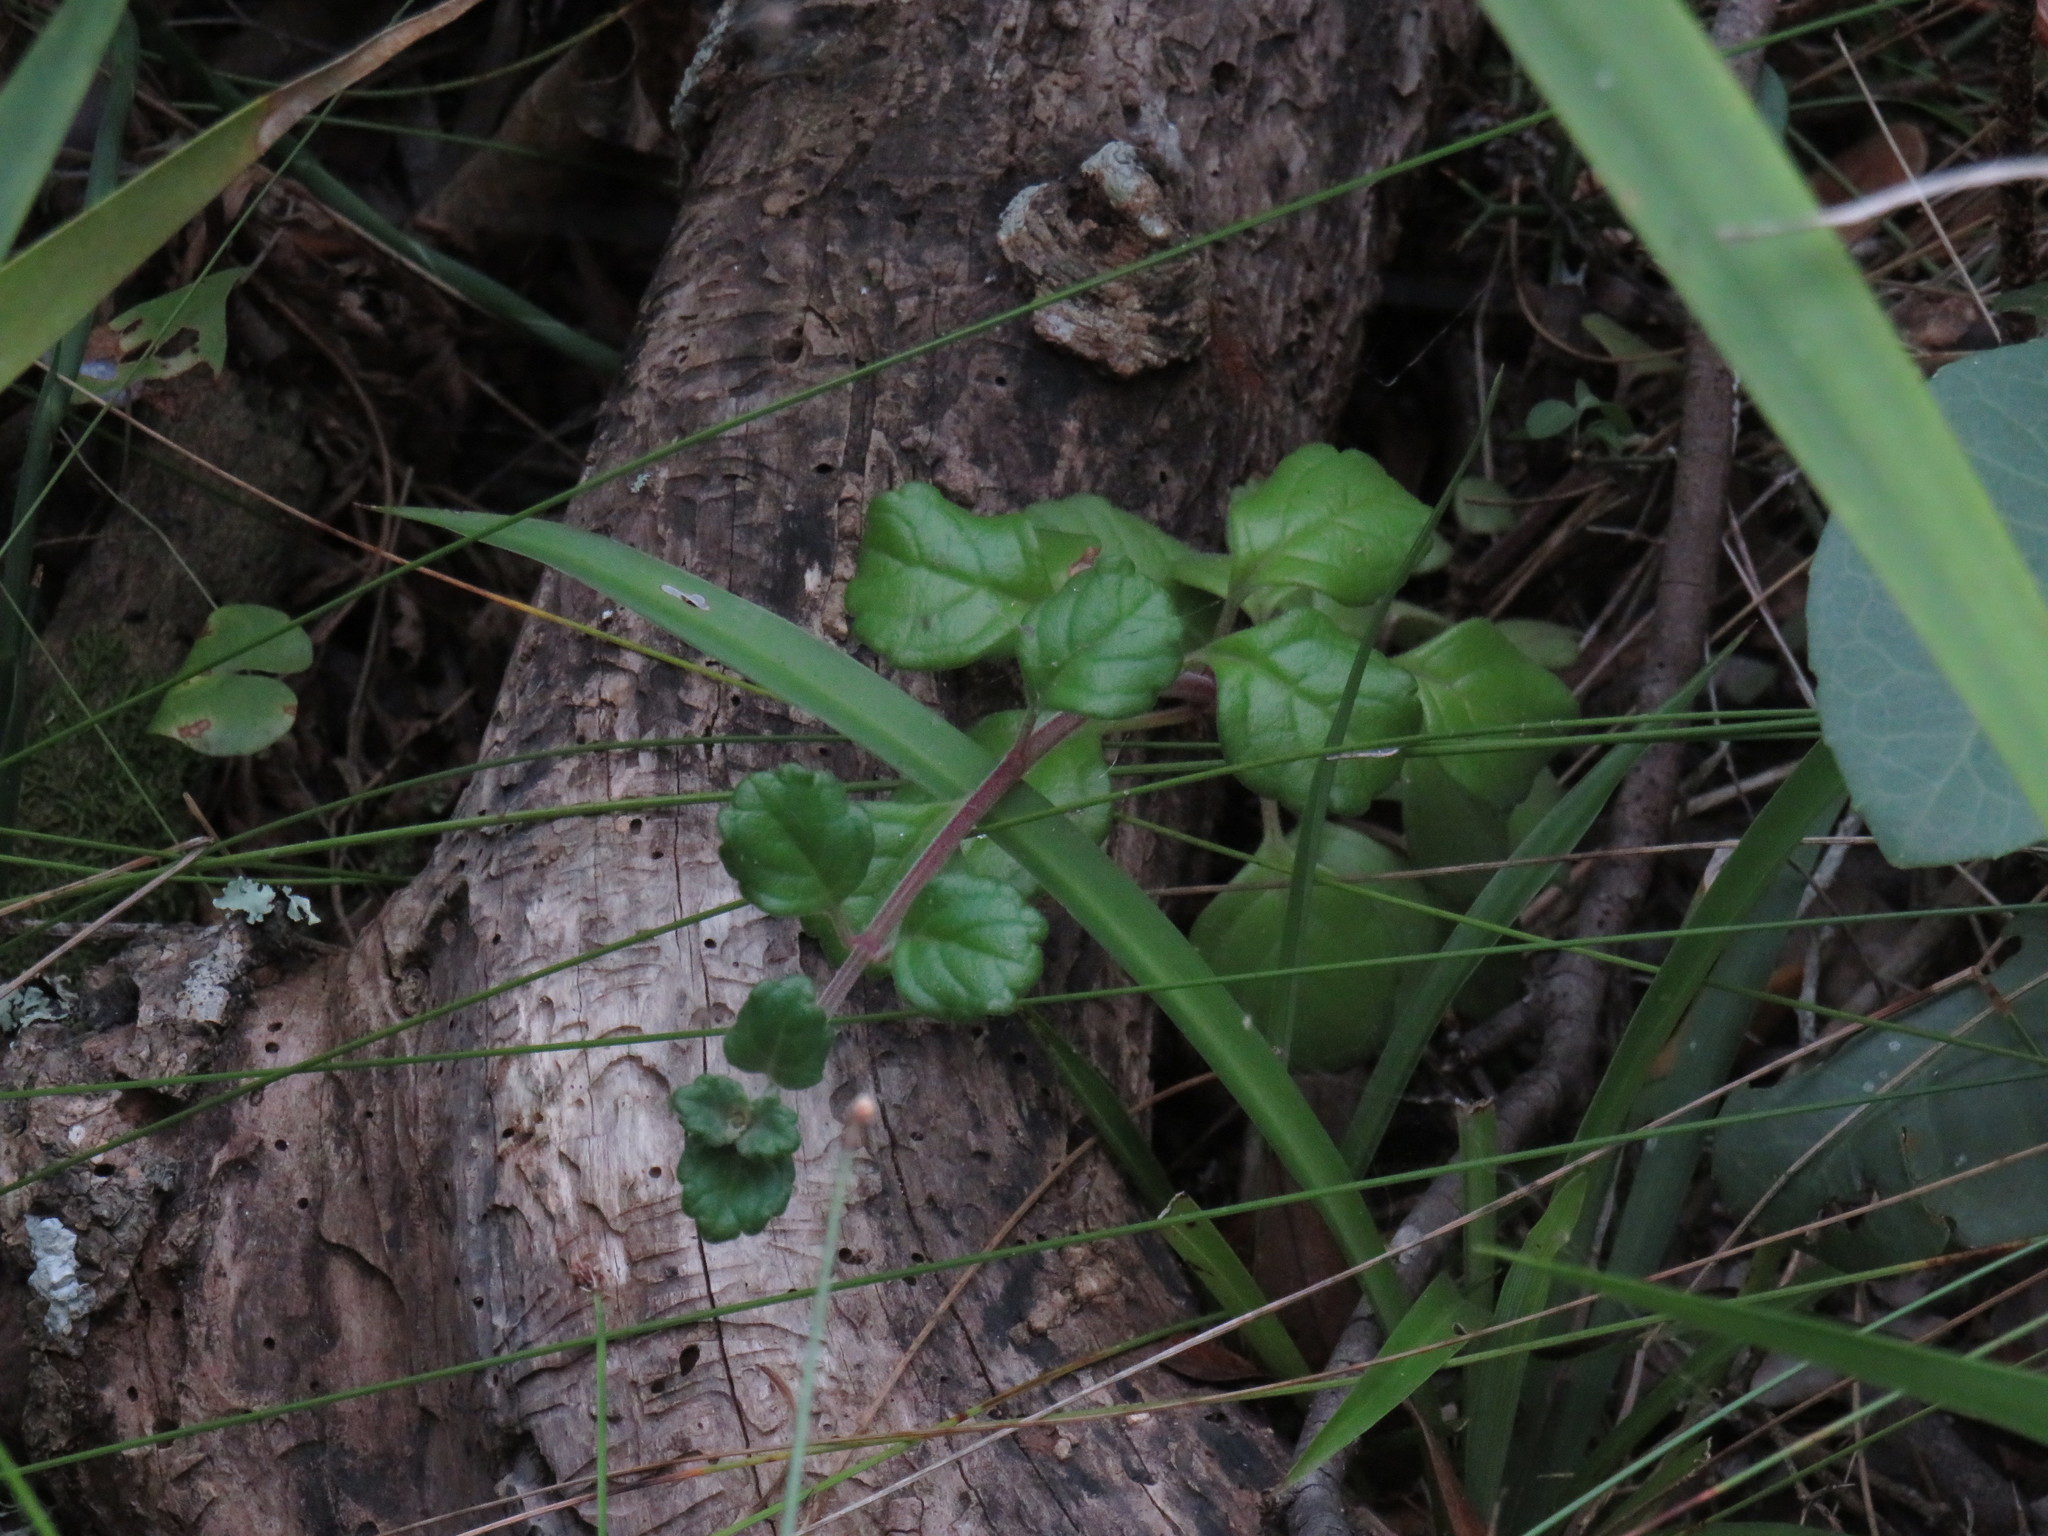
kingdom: Plantae
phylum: Tracheophyta
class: Magnoliopsida
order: Lamiales
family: Lamiaceae
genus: Plectranthus
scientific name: Plectranthus verticillatus
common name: Whorled plectranthus
